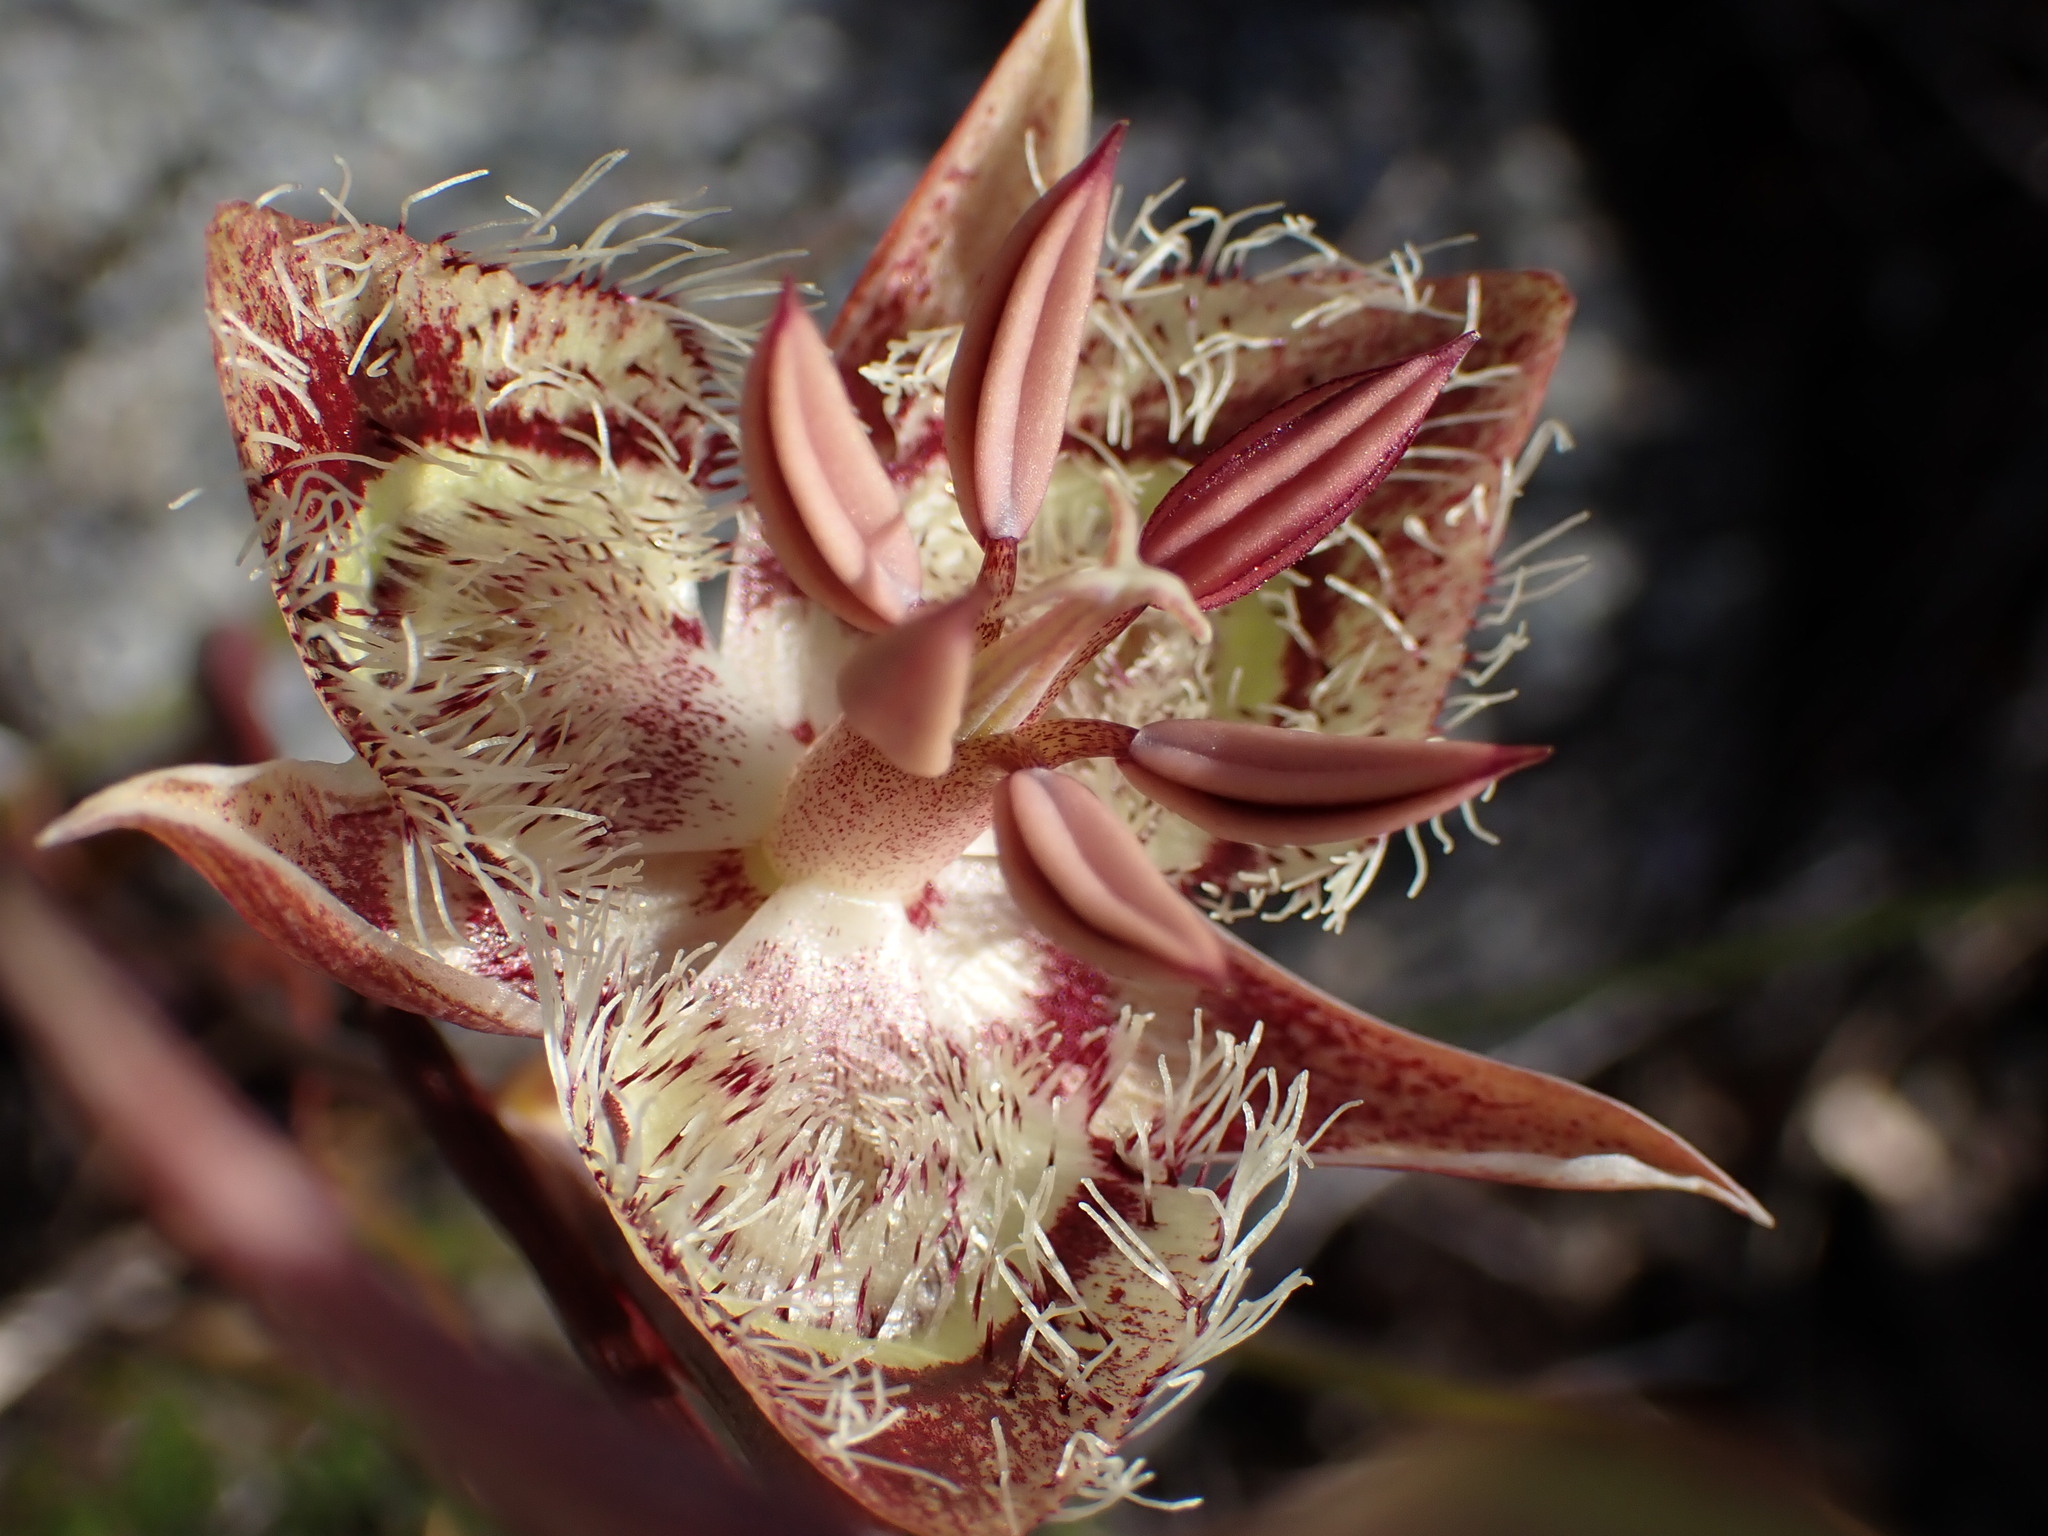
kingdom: Plantae
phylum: Tracheophyta
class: Liliopsida
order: Liliales
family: Liliaceae
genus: Calochortus
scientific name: Calochortus tiburonensis
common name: Tiburon mariposa-lily
